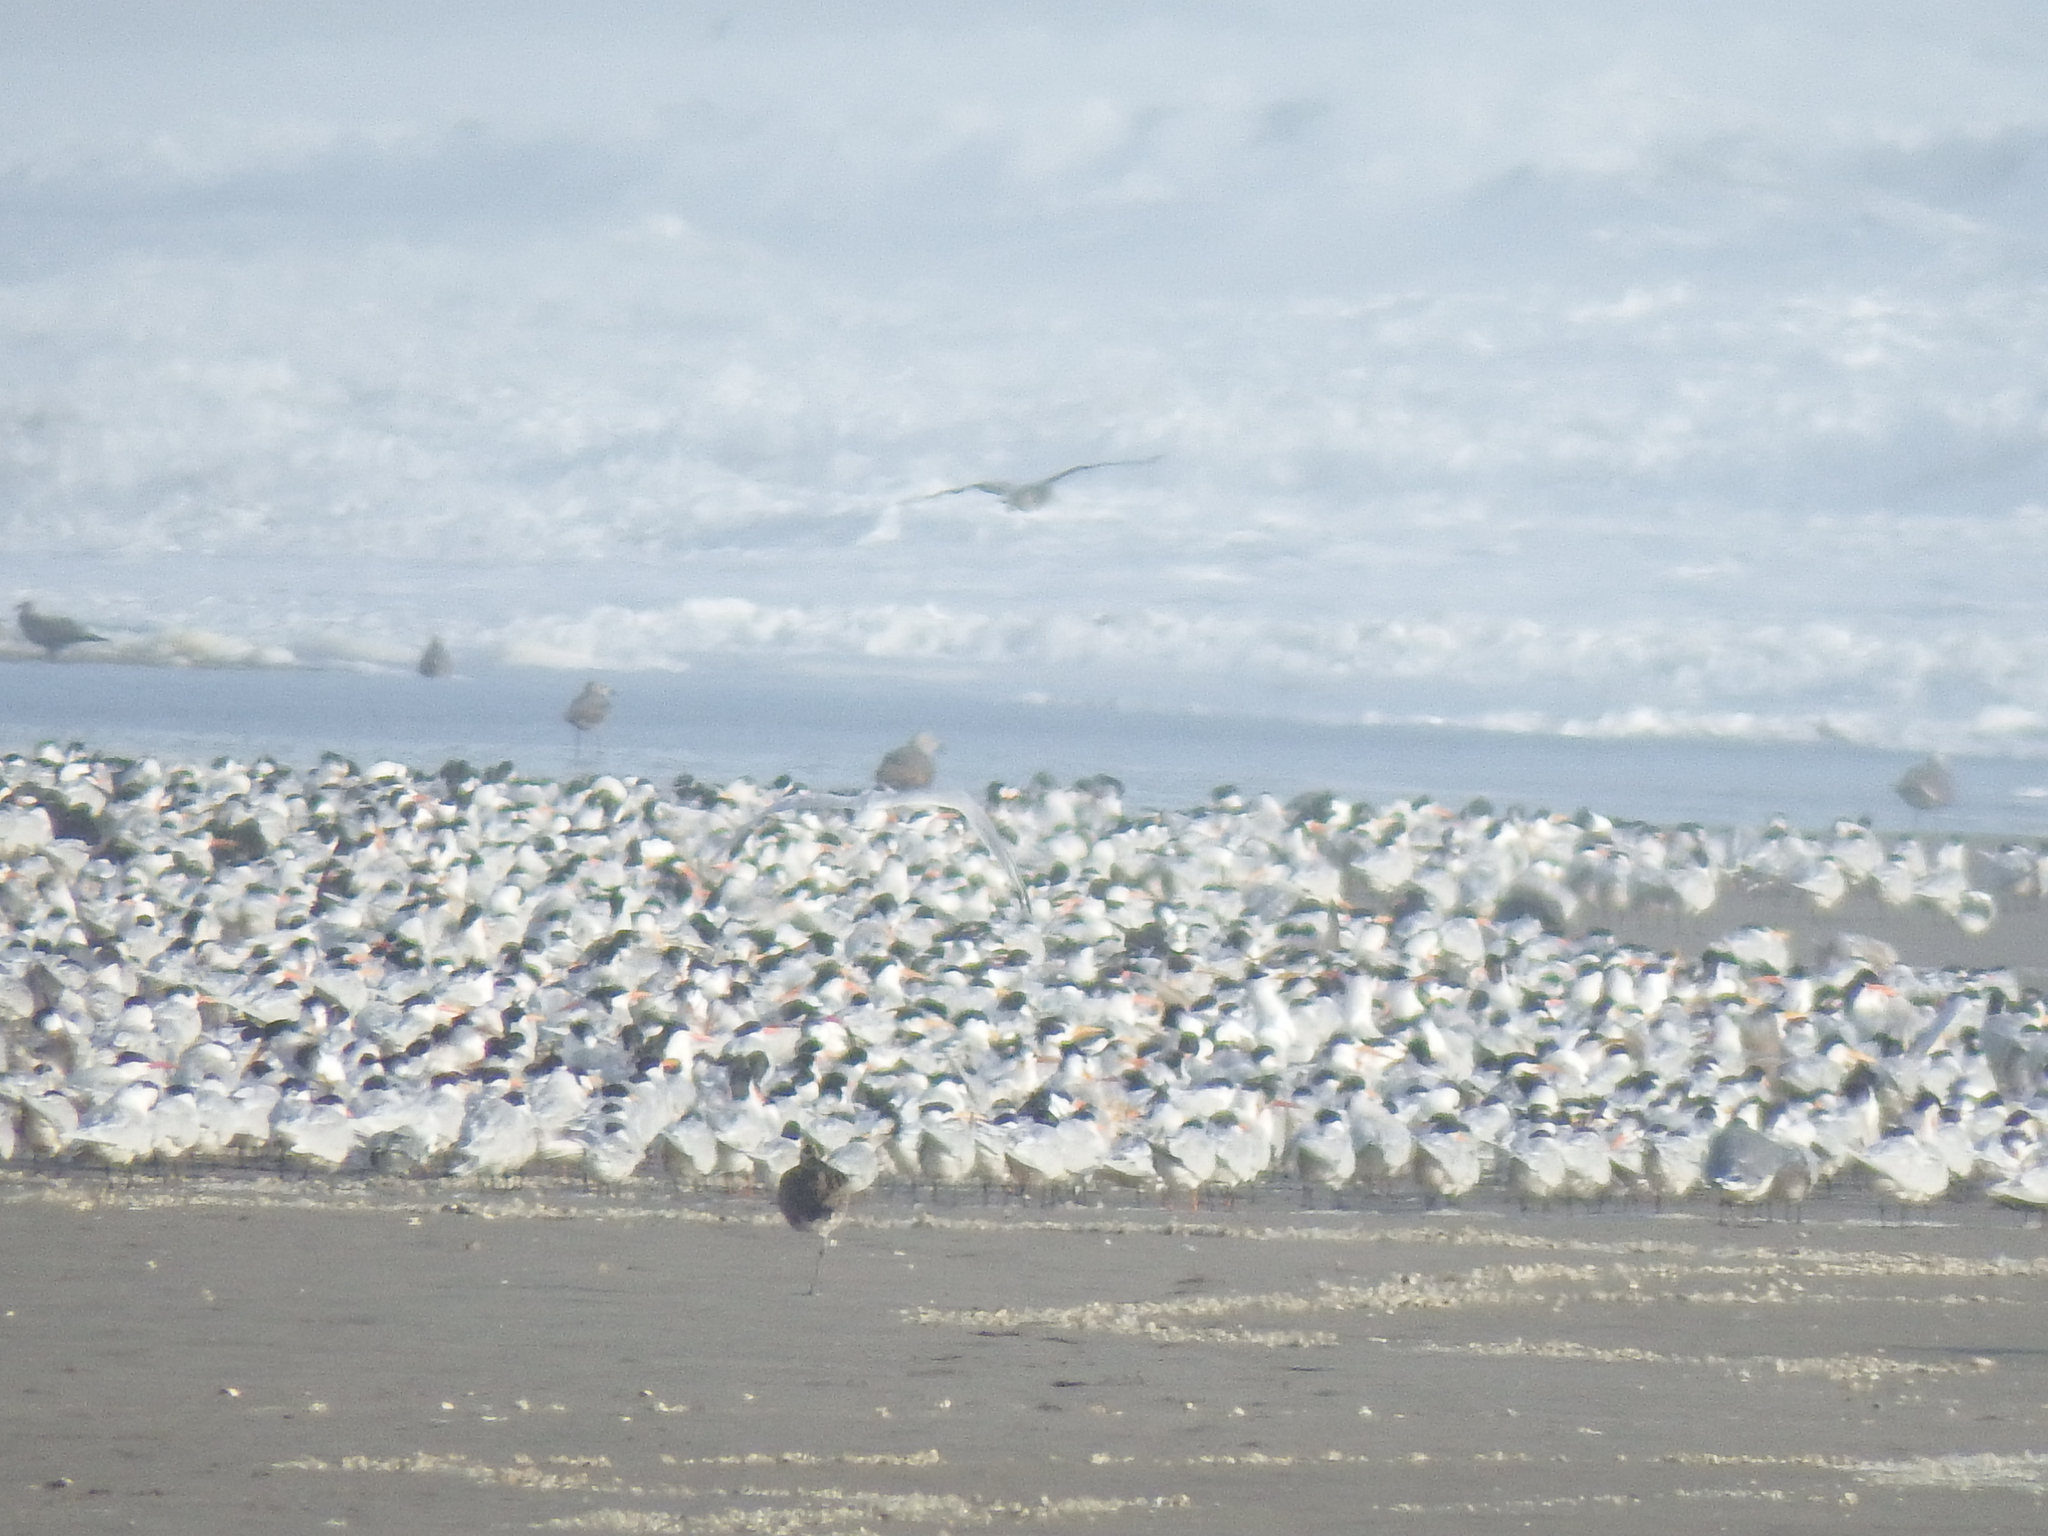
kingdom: Animalia
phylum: Chordata
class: Aves
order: Charadriiformes
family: Laridae
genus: Thalasseus
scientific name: Thalasseus elegans
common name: Elegant tern
